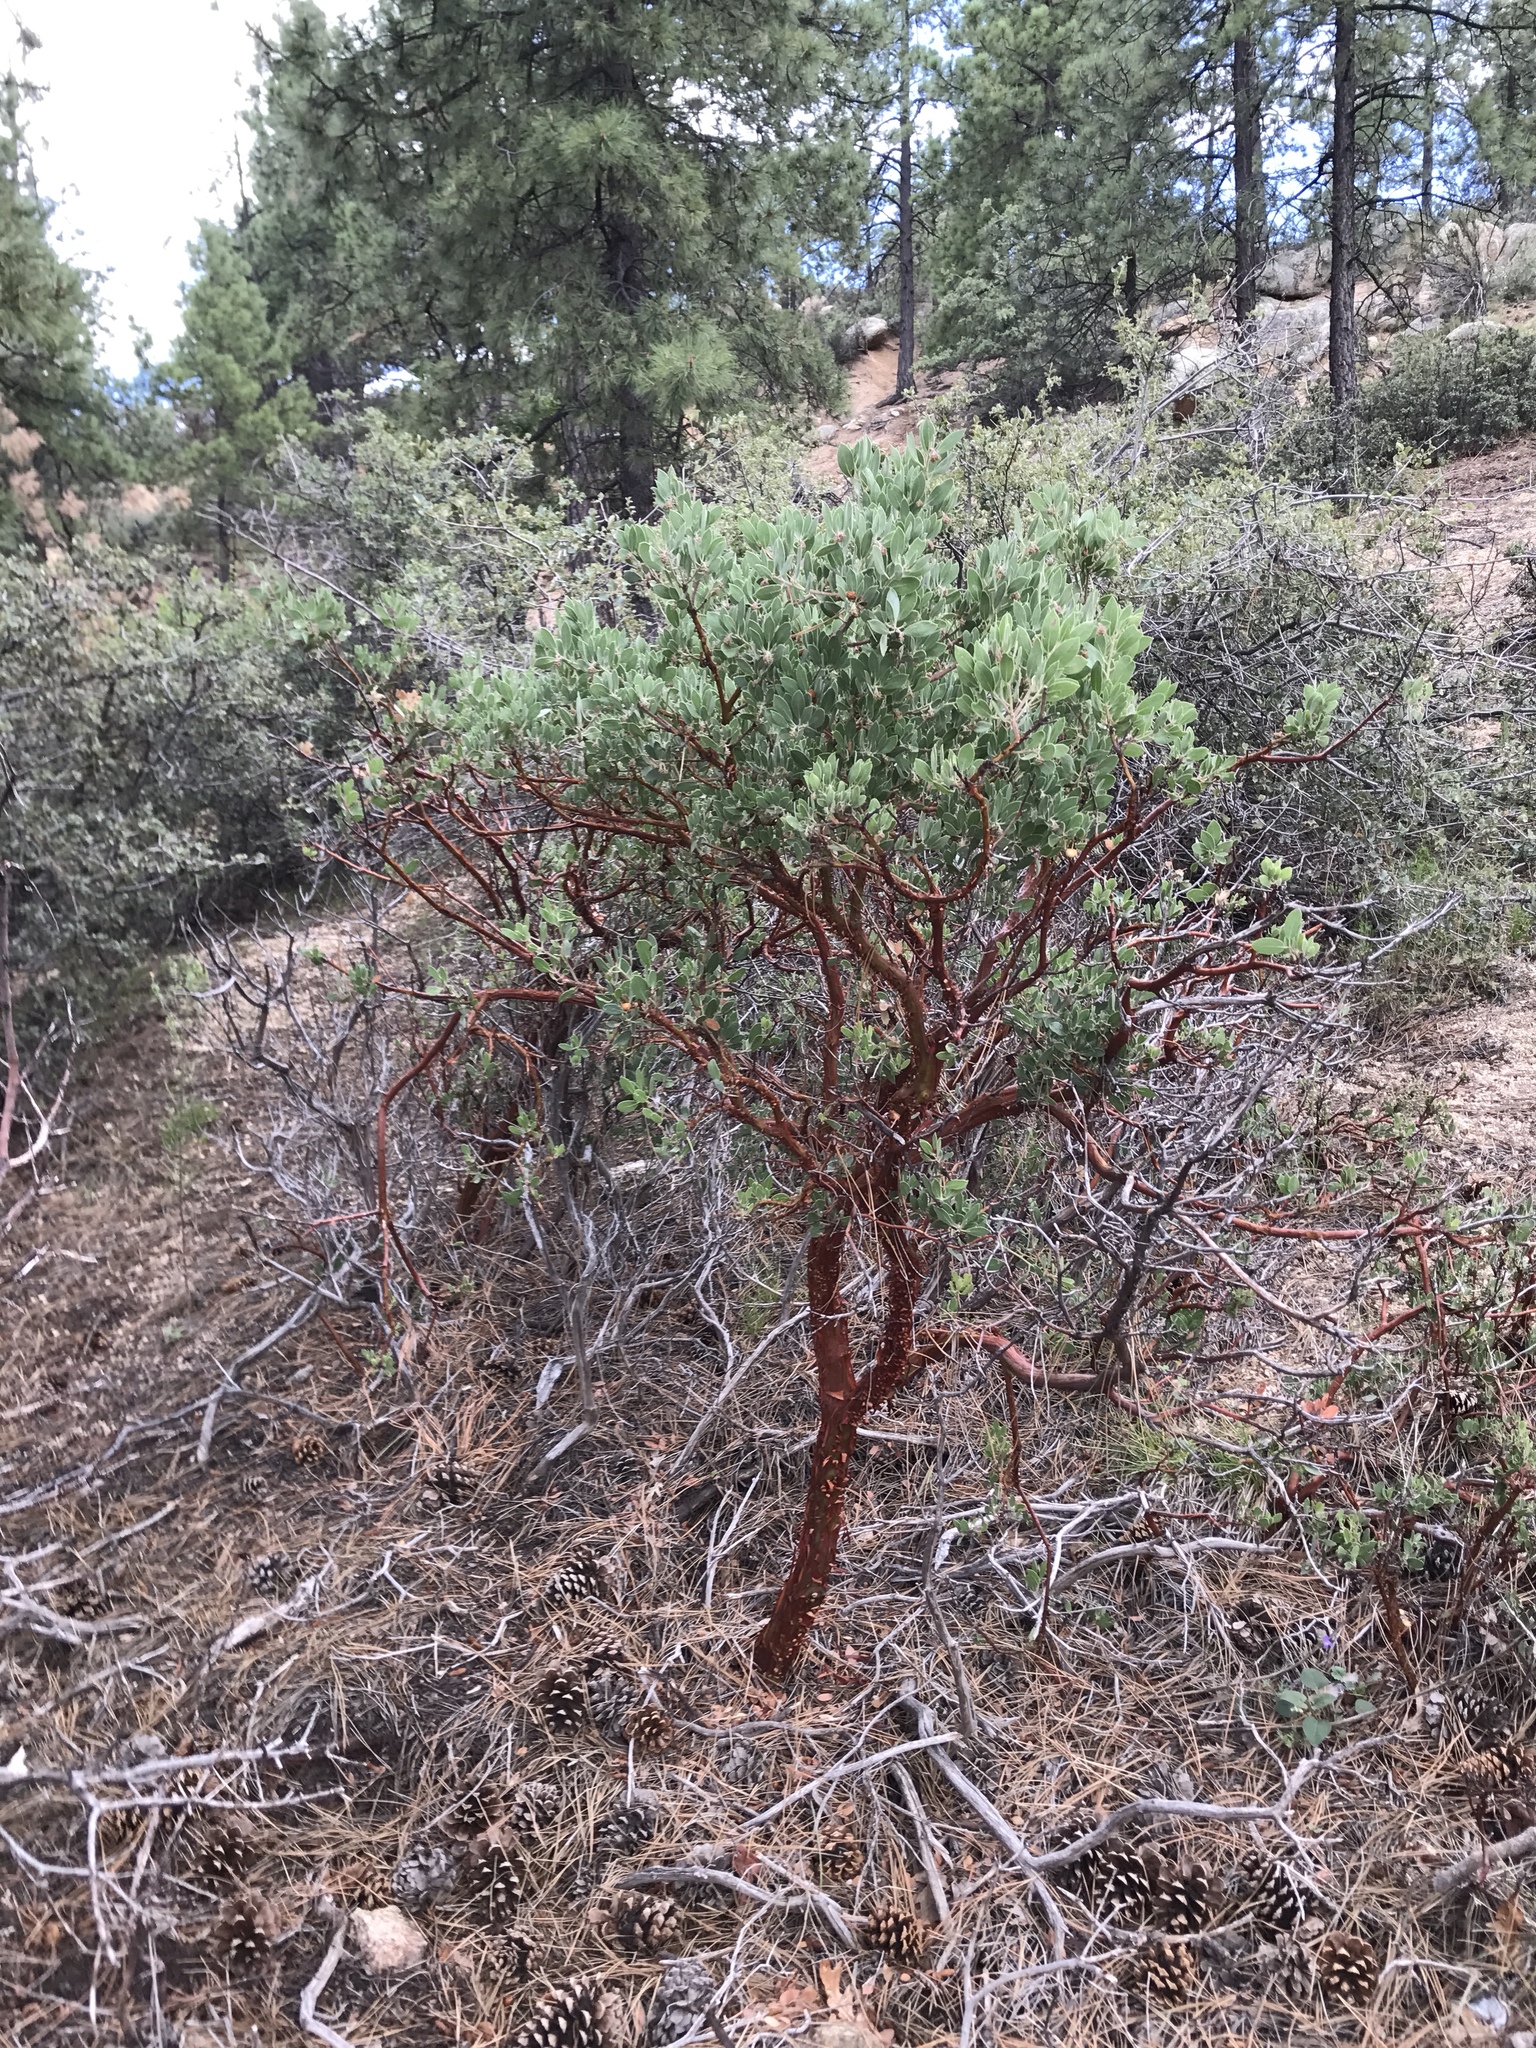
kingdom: Plantae
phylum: Tracheophyta
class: Magnoliopsida
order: Ericales
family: Ericaceae
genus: Arctostaphylos
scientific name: Arctostaphylos pungens
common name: Mexican manzanita
